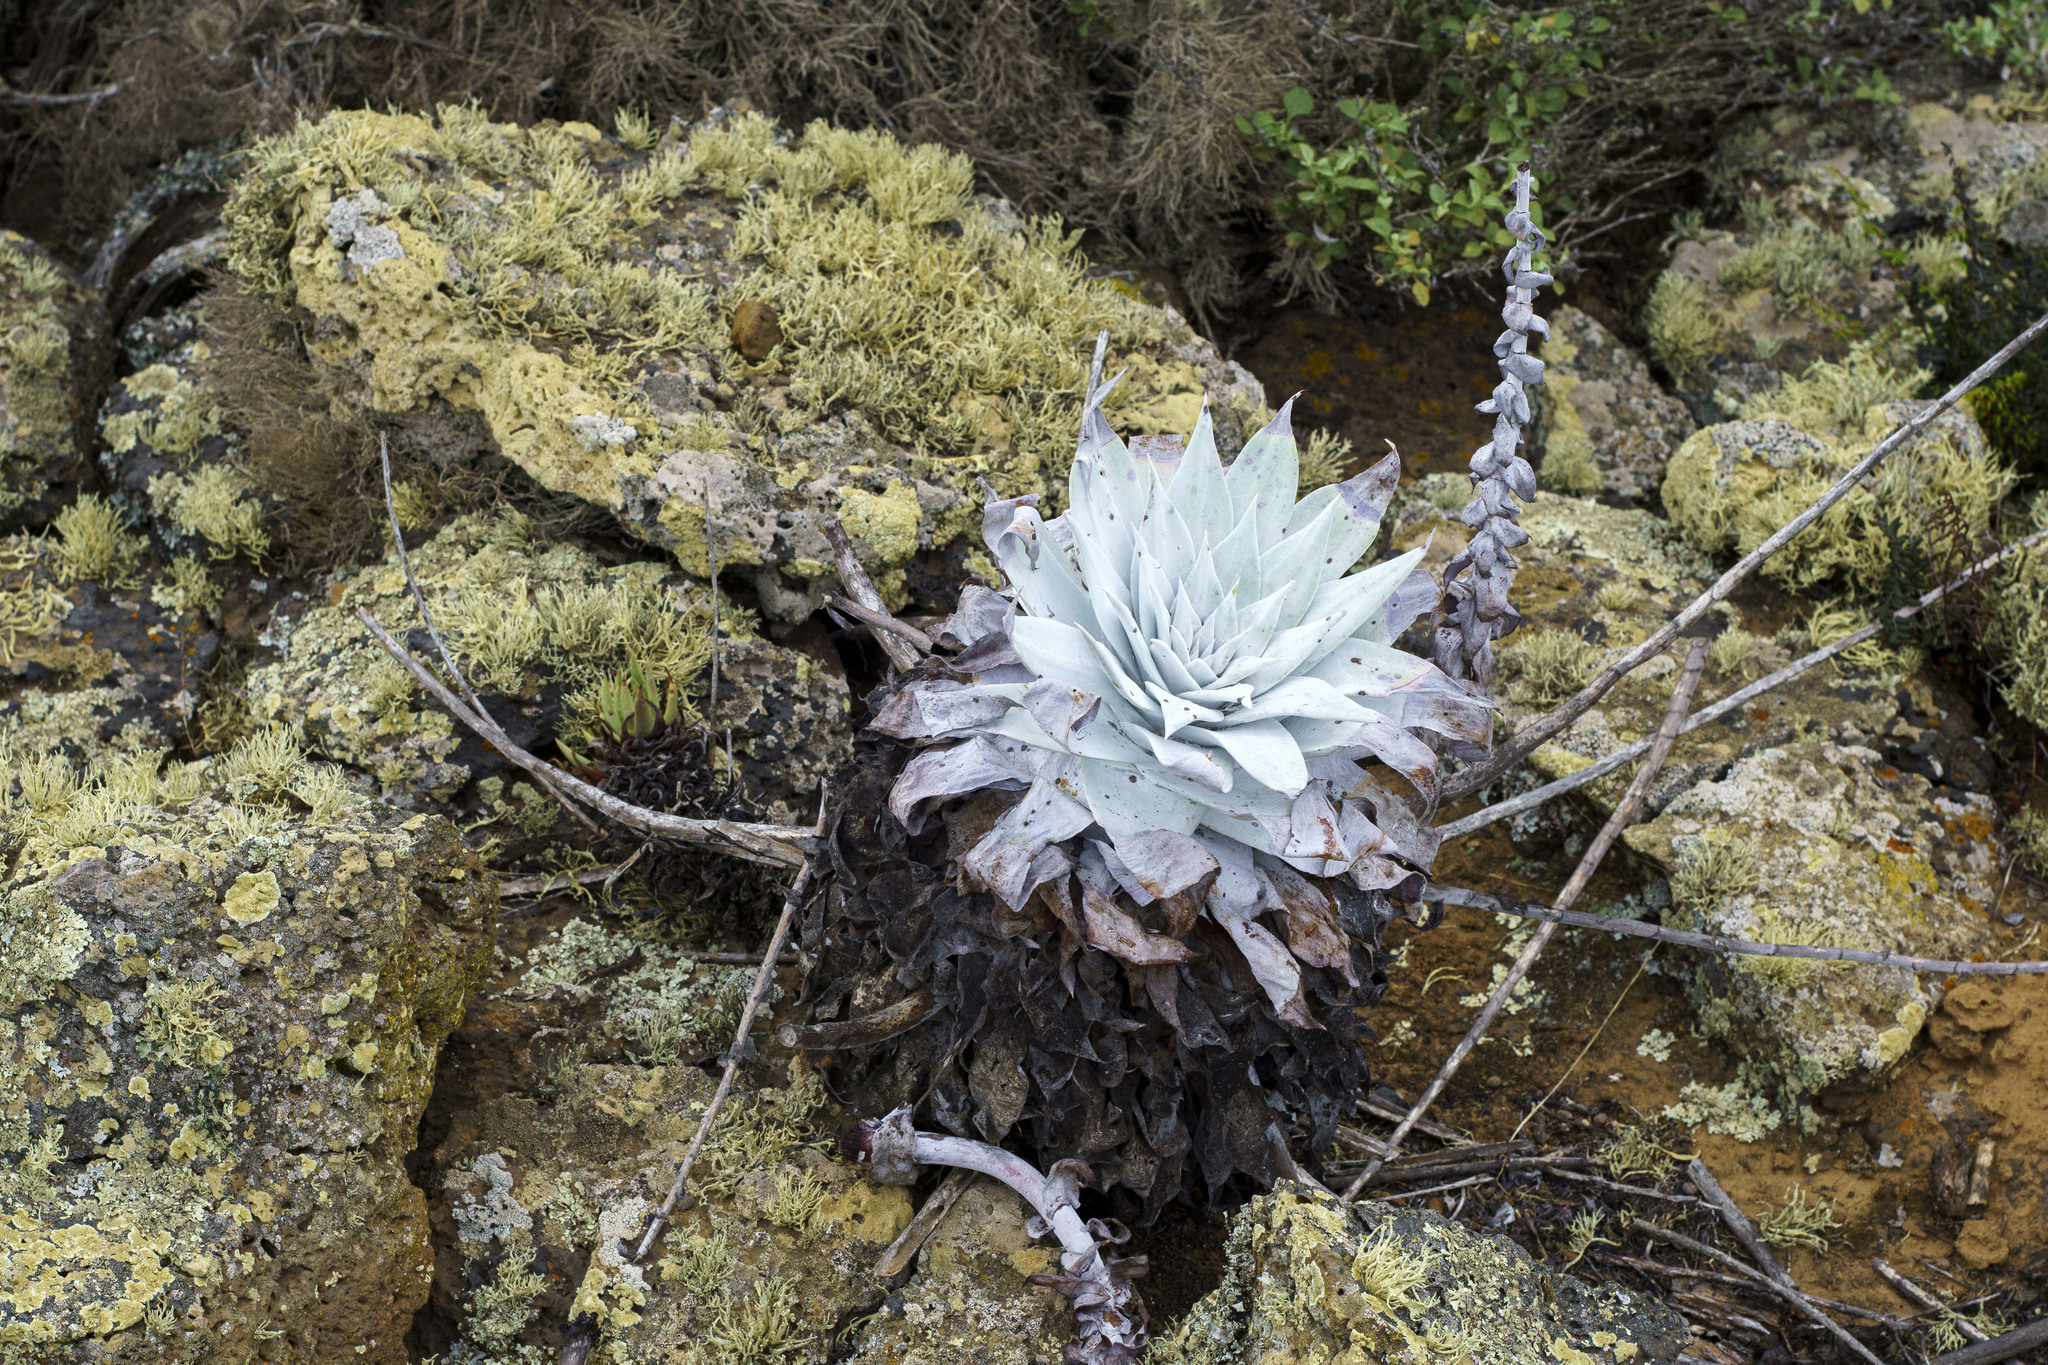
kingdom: Plantae
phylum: Tracheophyta
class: Magnoliopsida
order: Saxifragales
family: Crassulaceae
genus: Dudleya
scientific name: Dudleya anthonyi
